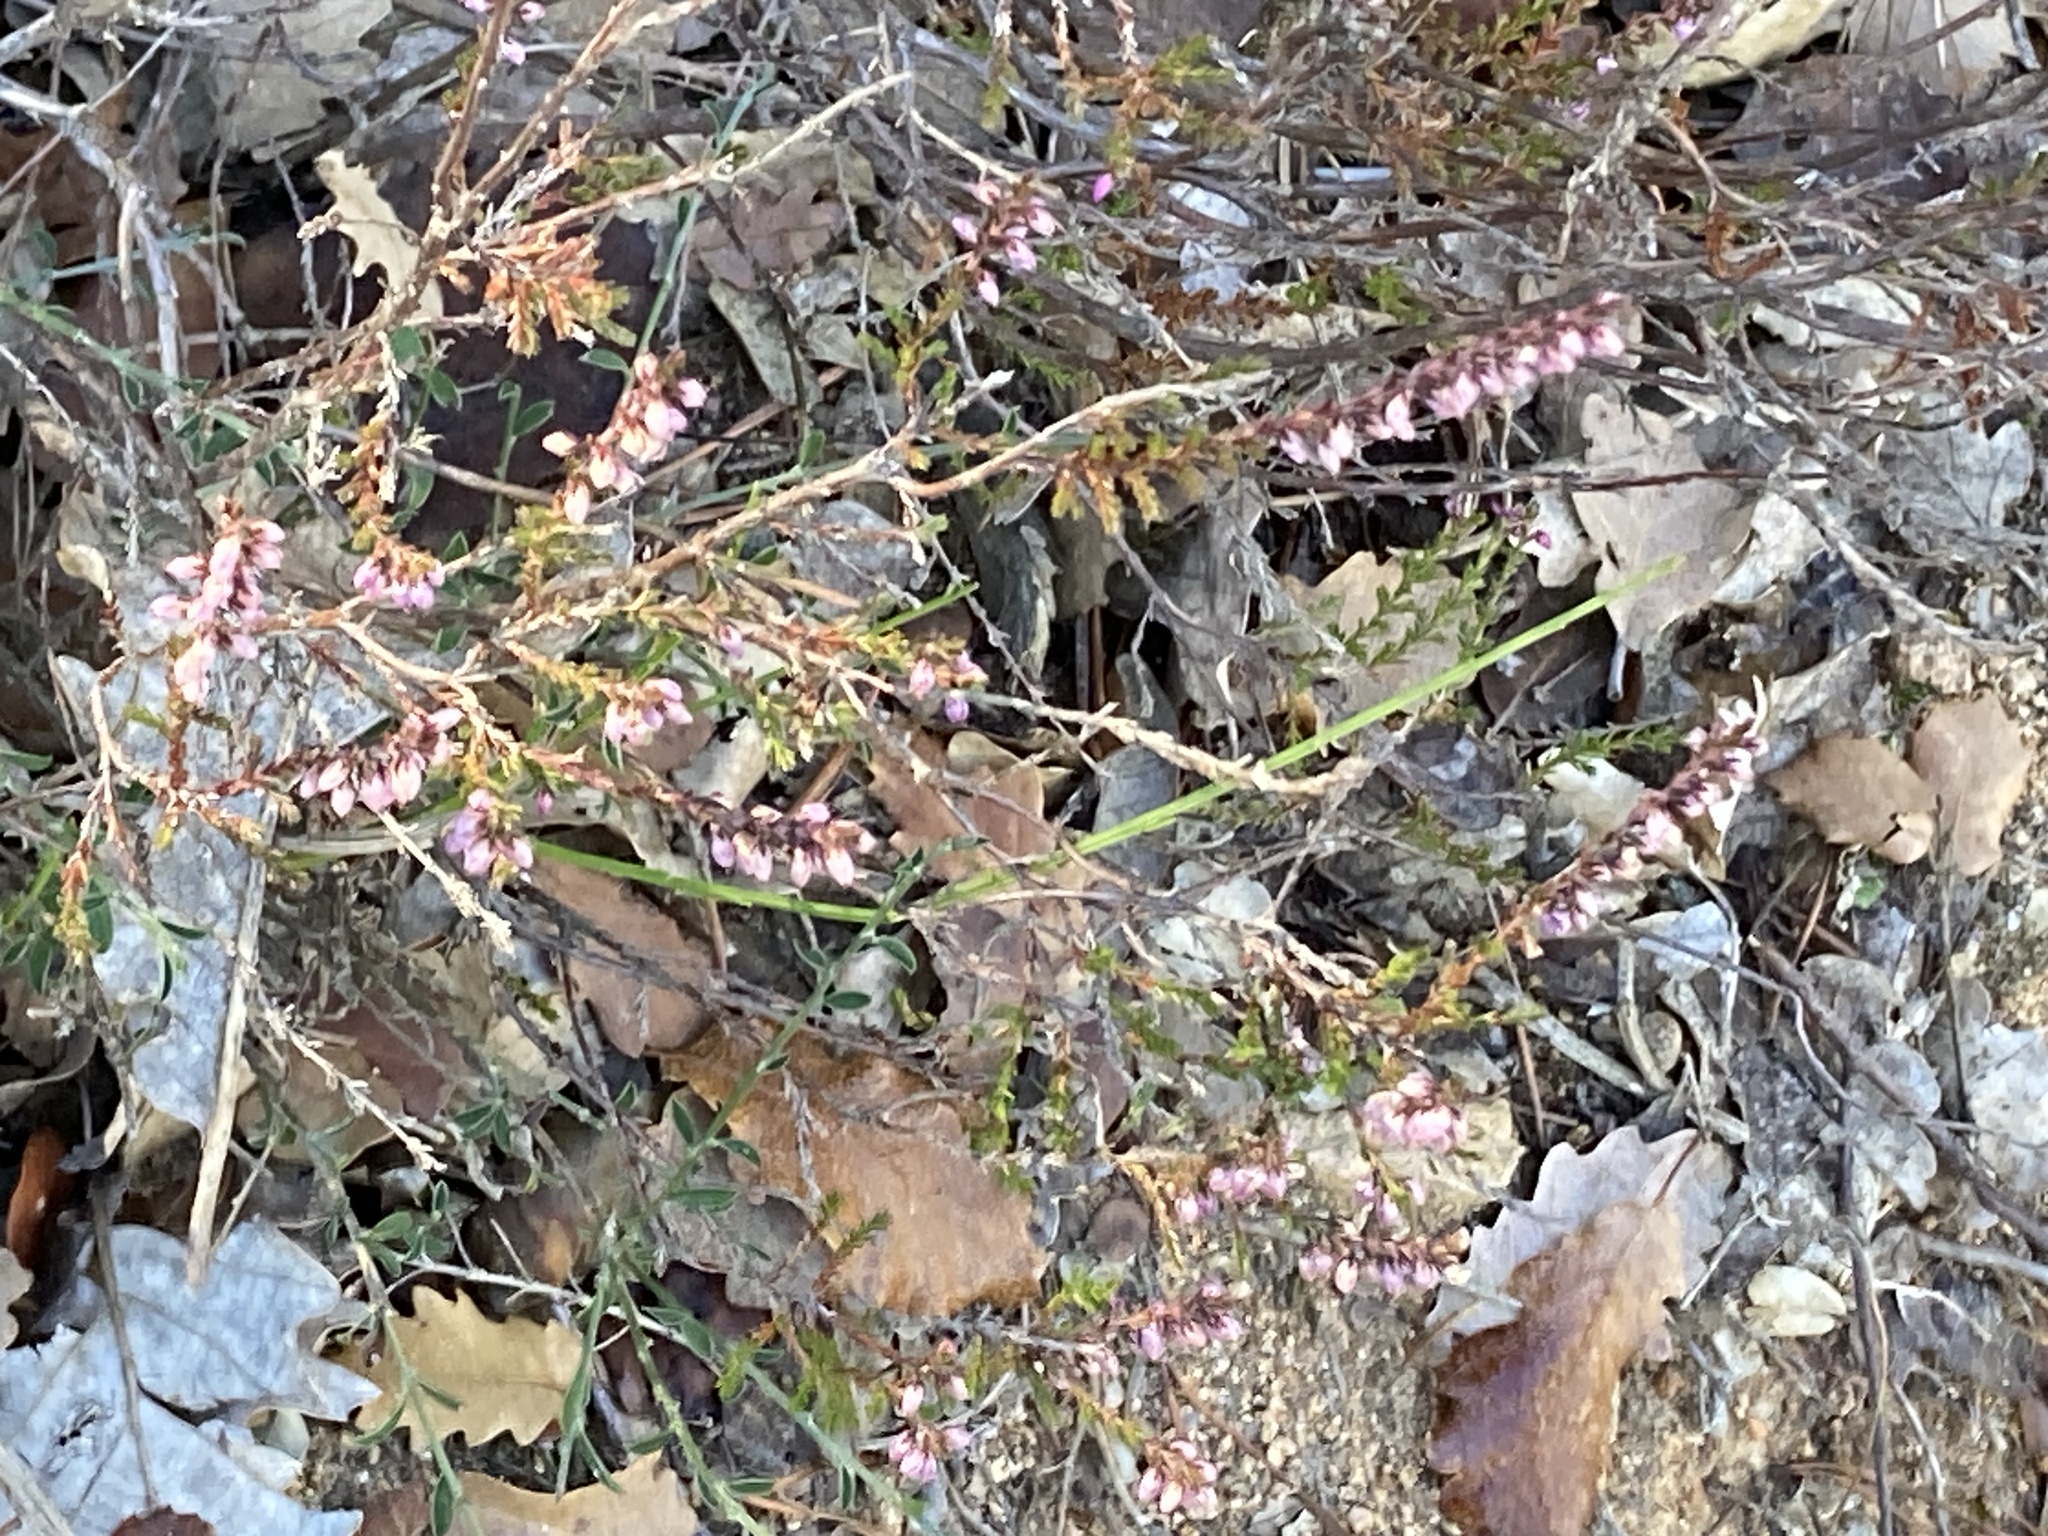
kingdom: Plantae
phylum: Tracheophyta
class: Magnoliopsida
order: Ericales
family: Ericaceae
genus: Calluna
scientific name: Calluna vulgaris
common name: Heather
